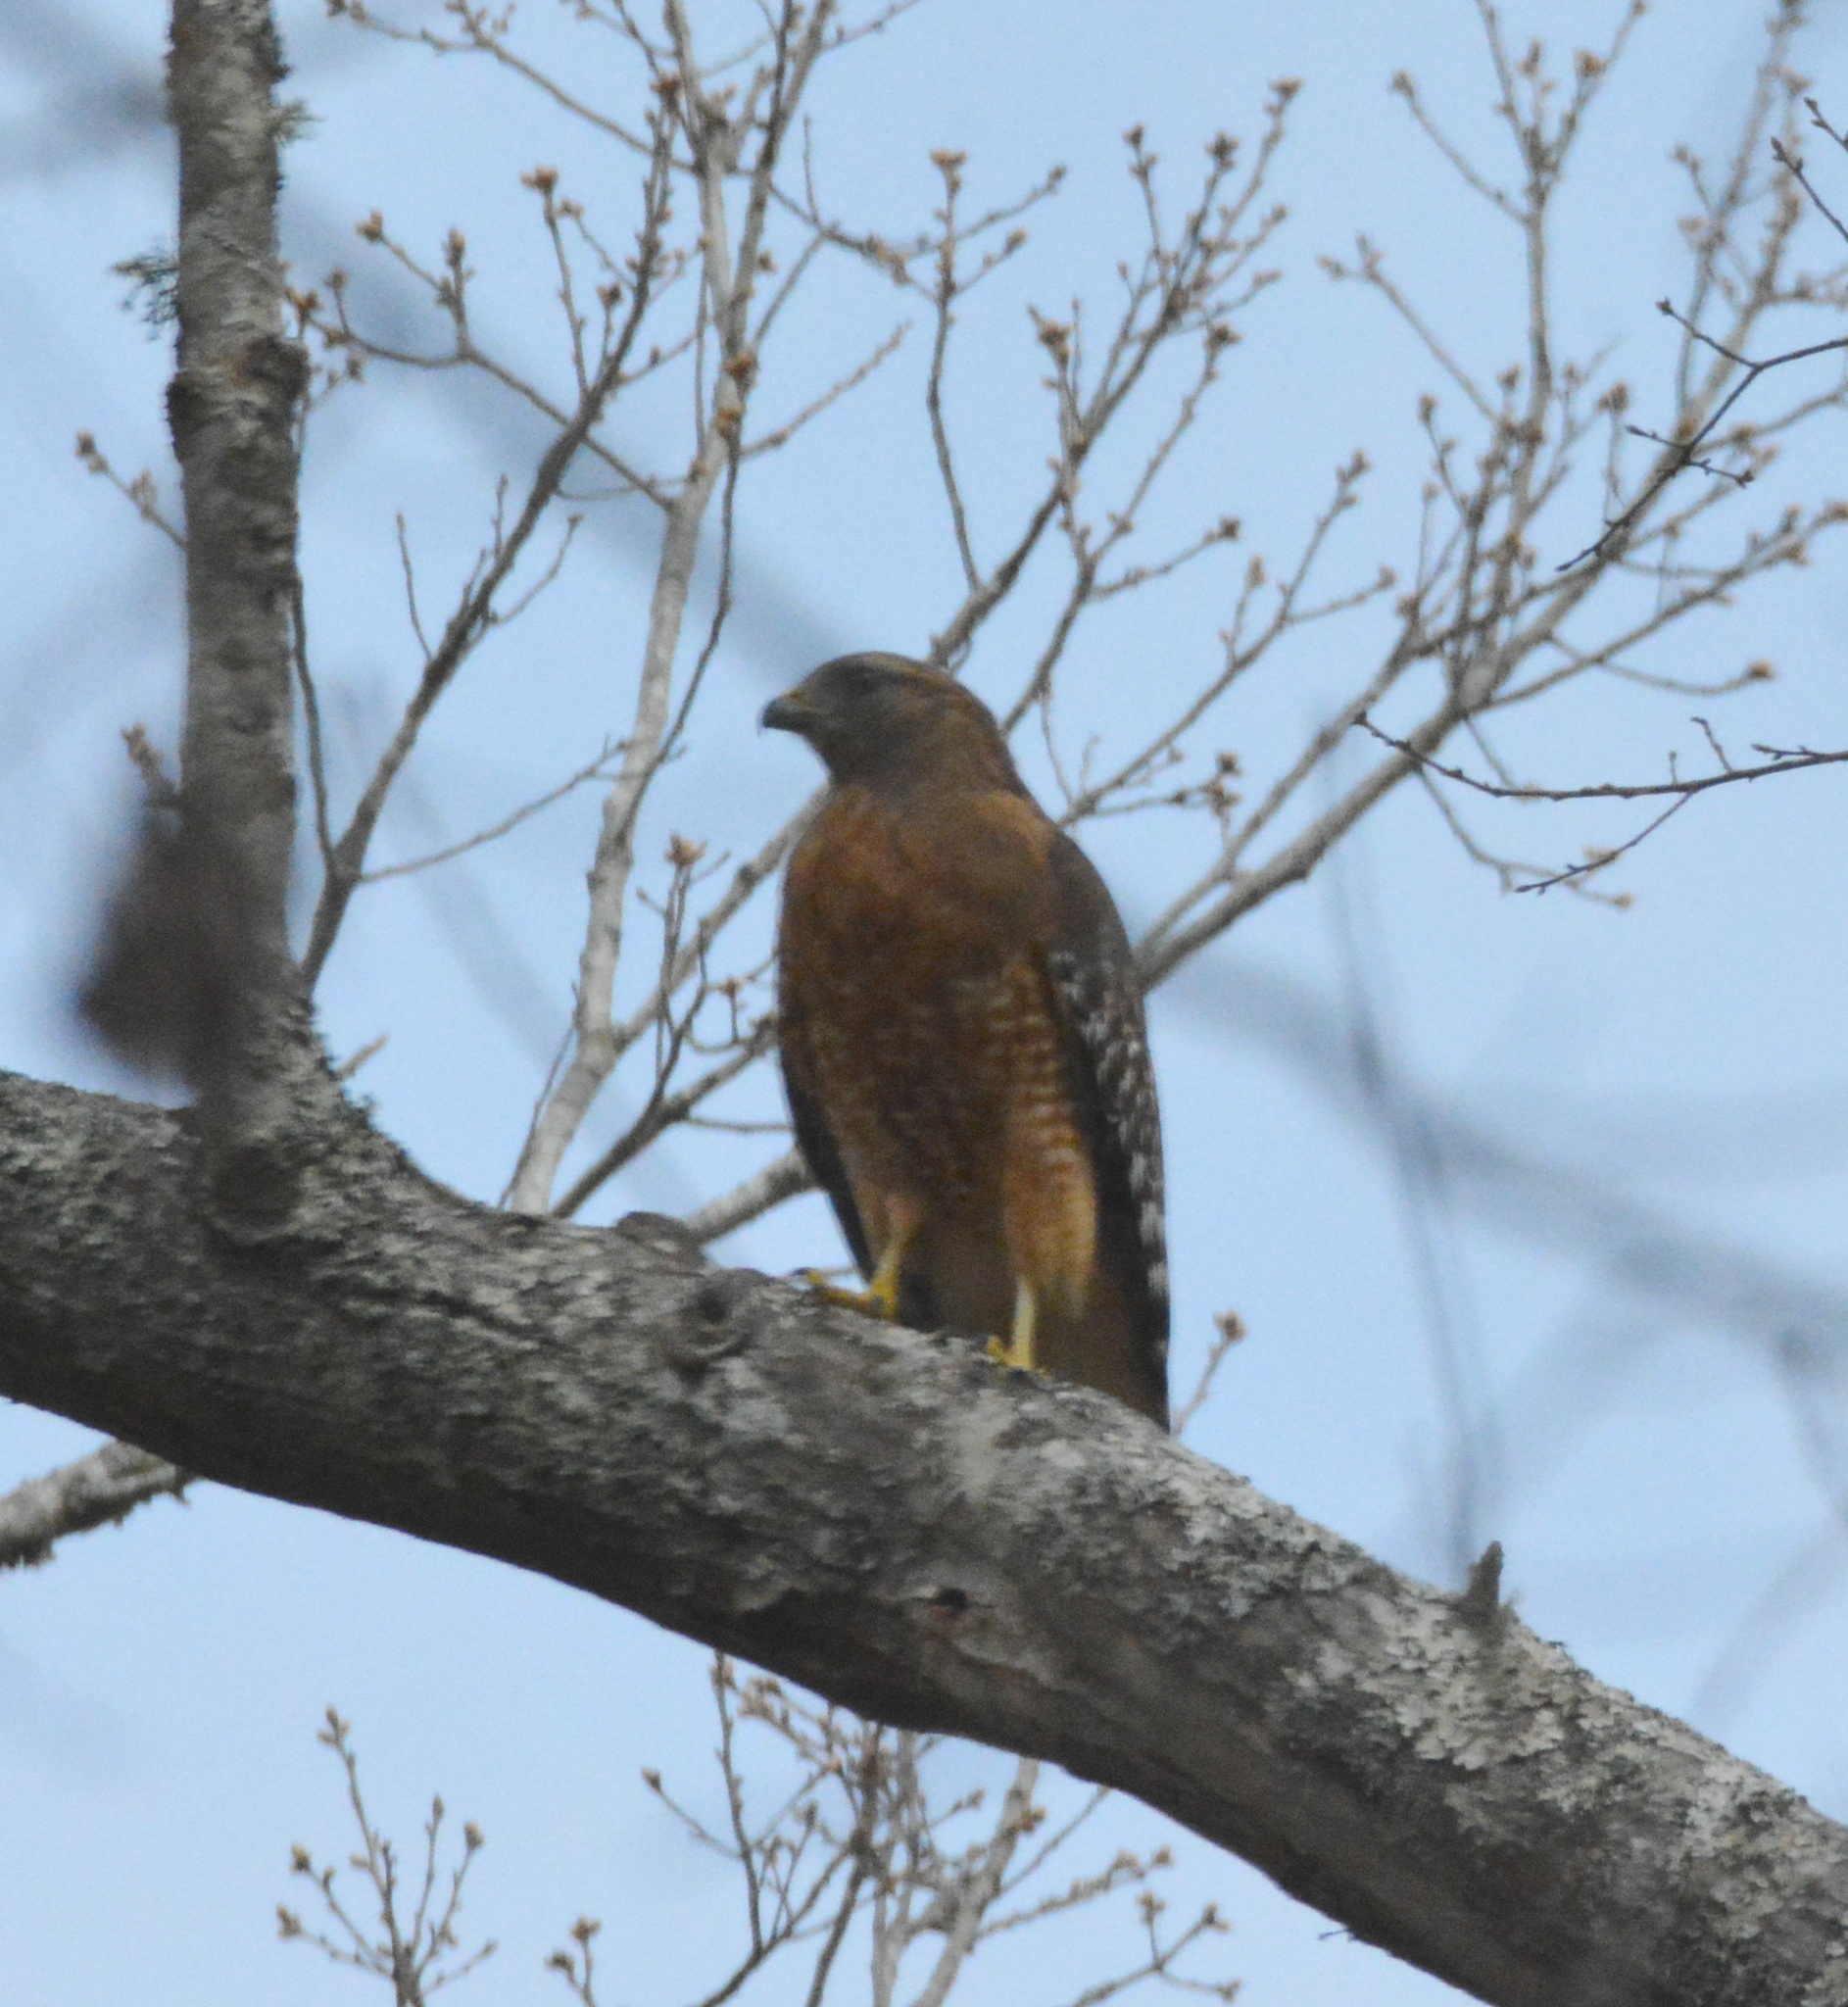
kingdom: Animalia
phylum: Chordata
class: Aves
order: Accipitriformes
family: Accipitridae
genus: Buteo
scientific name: Buteo lineatus
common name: Red-shouldered hawk
